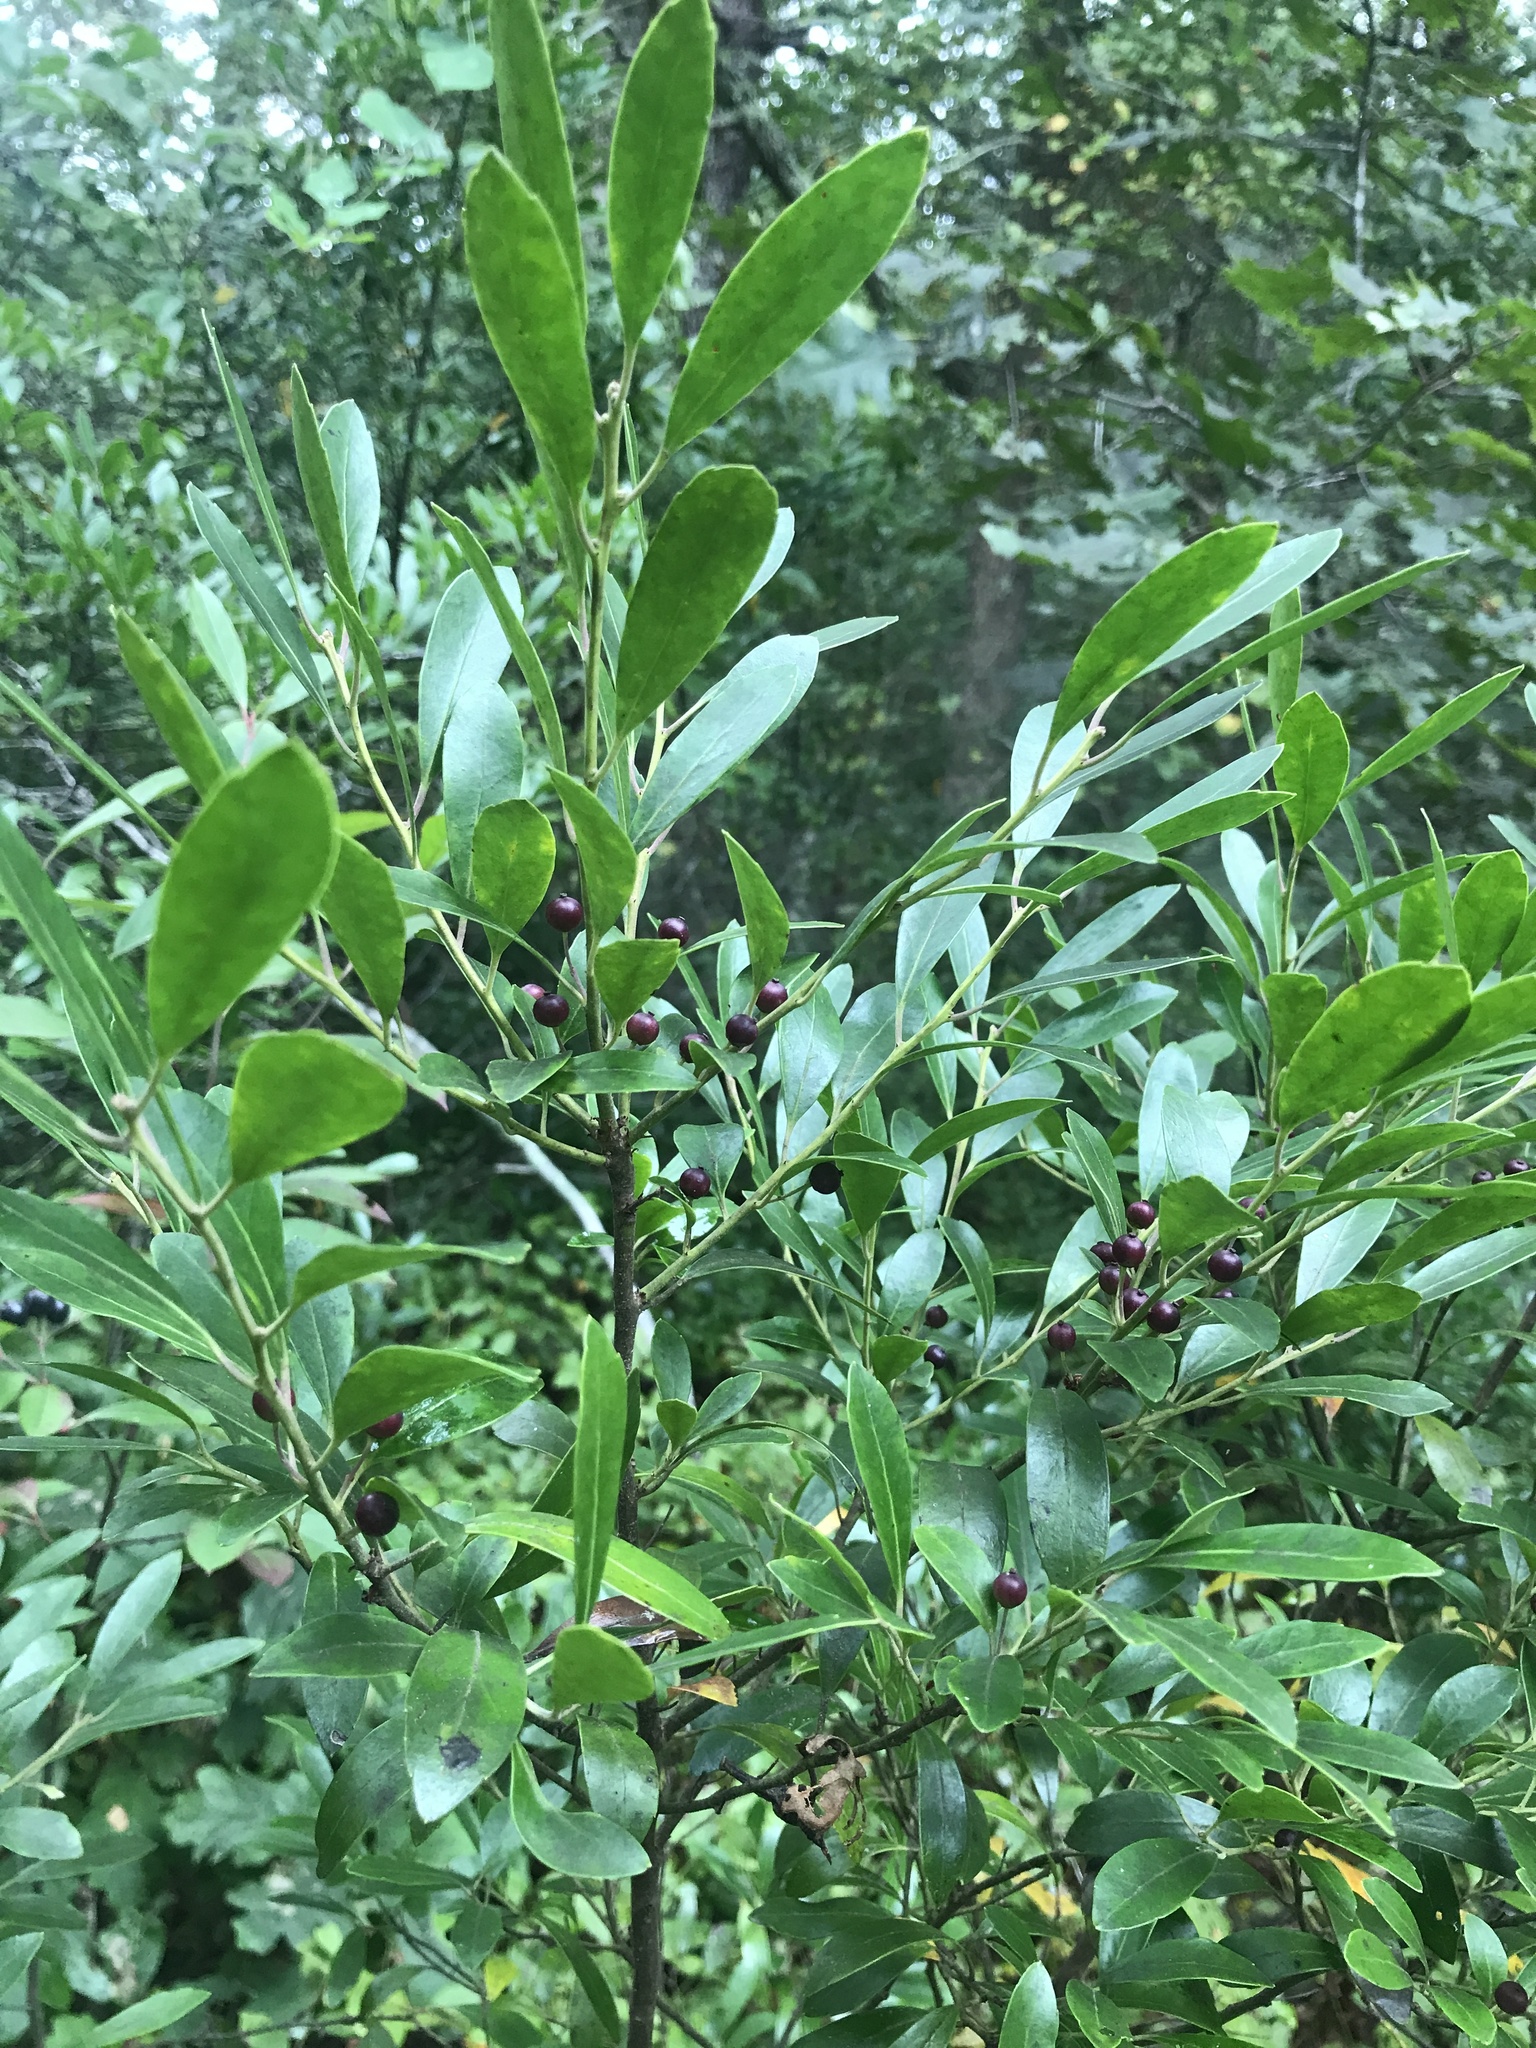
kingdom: Plantae
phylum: Tracheophyta
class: Magnoliopsida
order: Aquifoliales
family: Aquifoliaceae
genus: Ilex
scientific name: Ilex glabra
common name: Bitter gallberry
